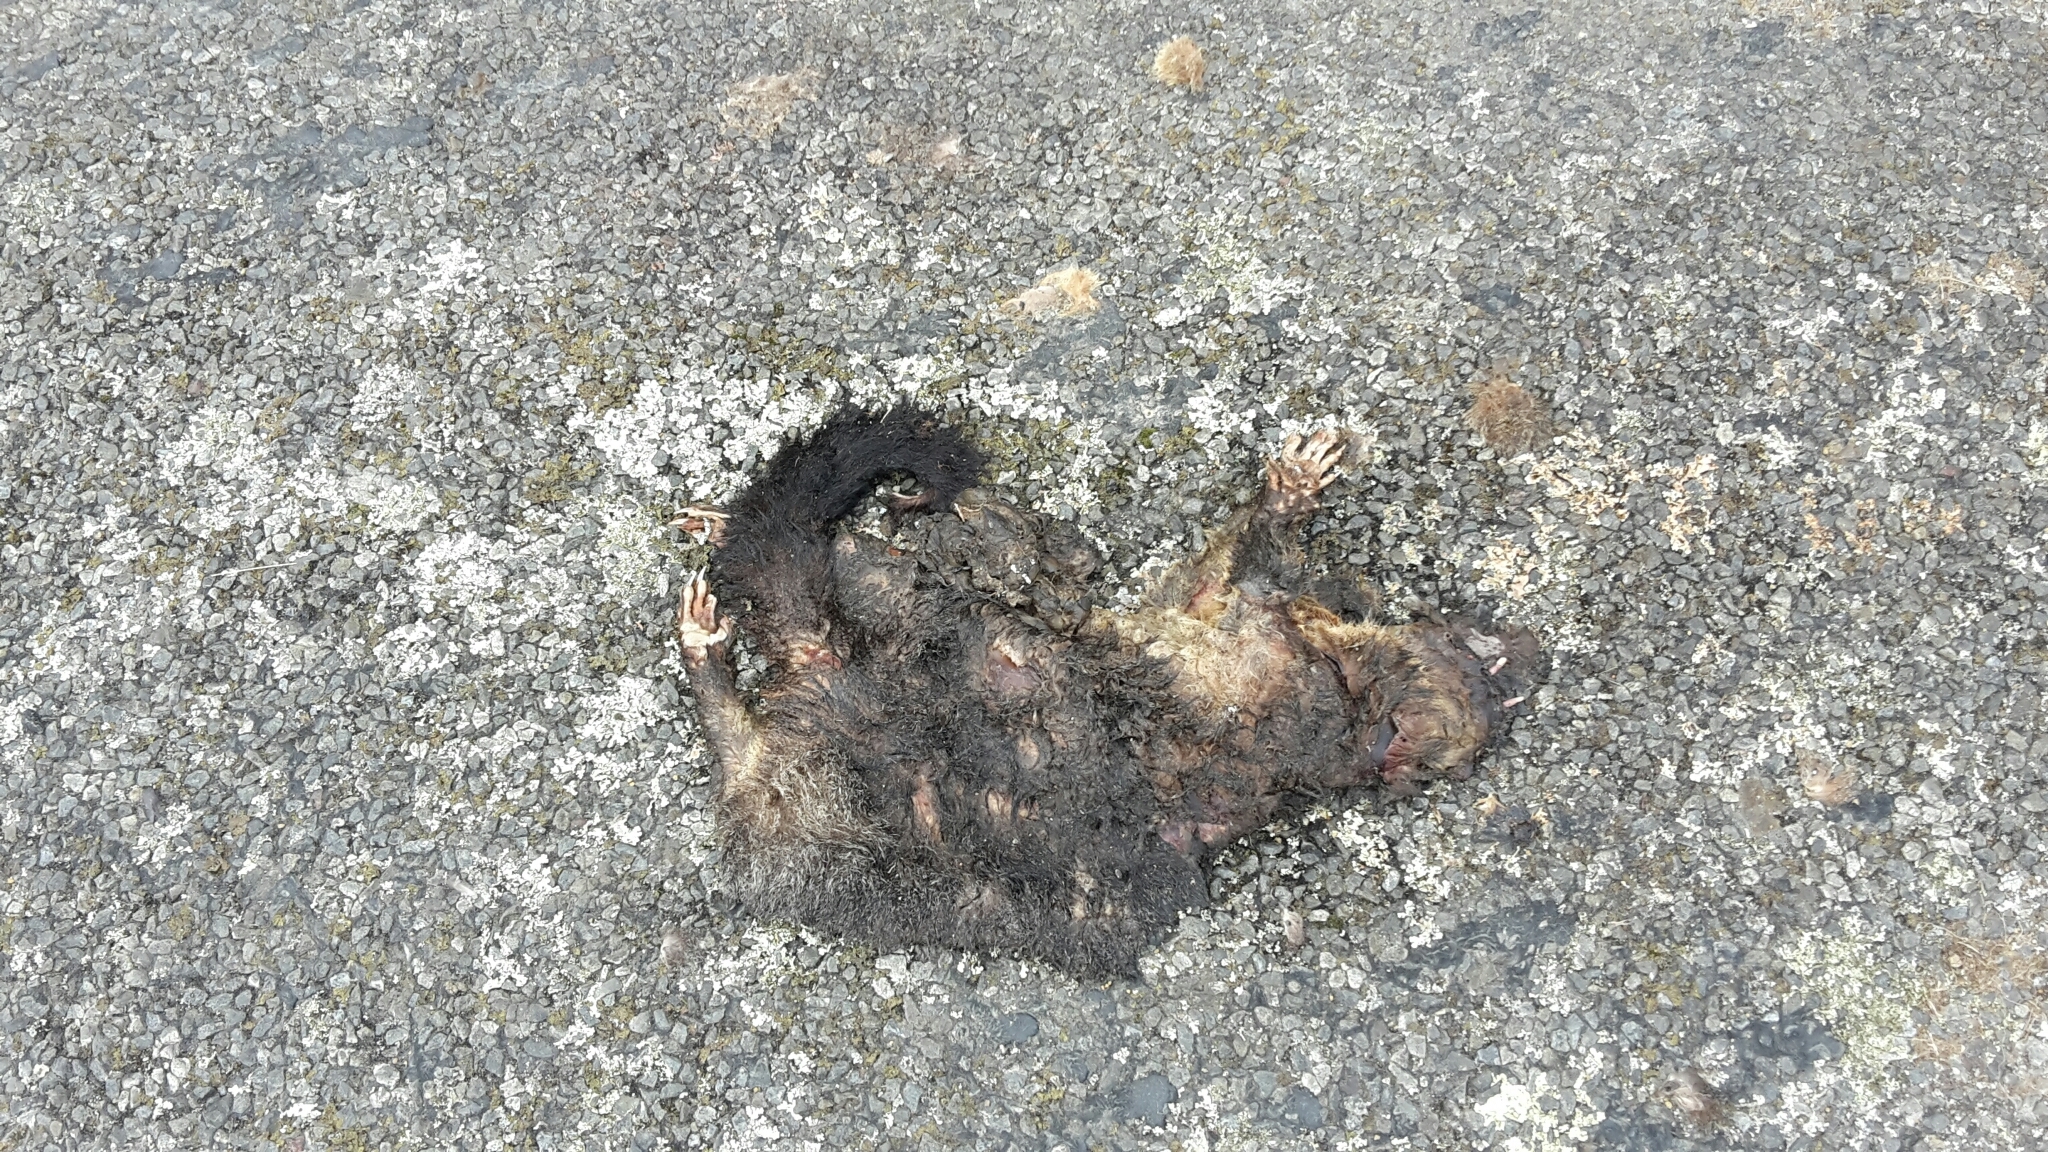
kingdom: Animalia
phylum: Chordata
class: Mammalia
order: Diprotodontia
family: Phalangeridae
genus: Trichosurus
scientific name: Trichosurus vulpecula
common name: Common brushtail
